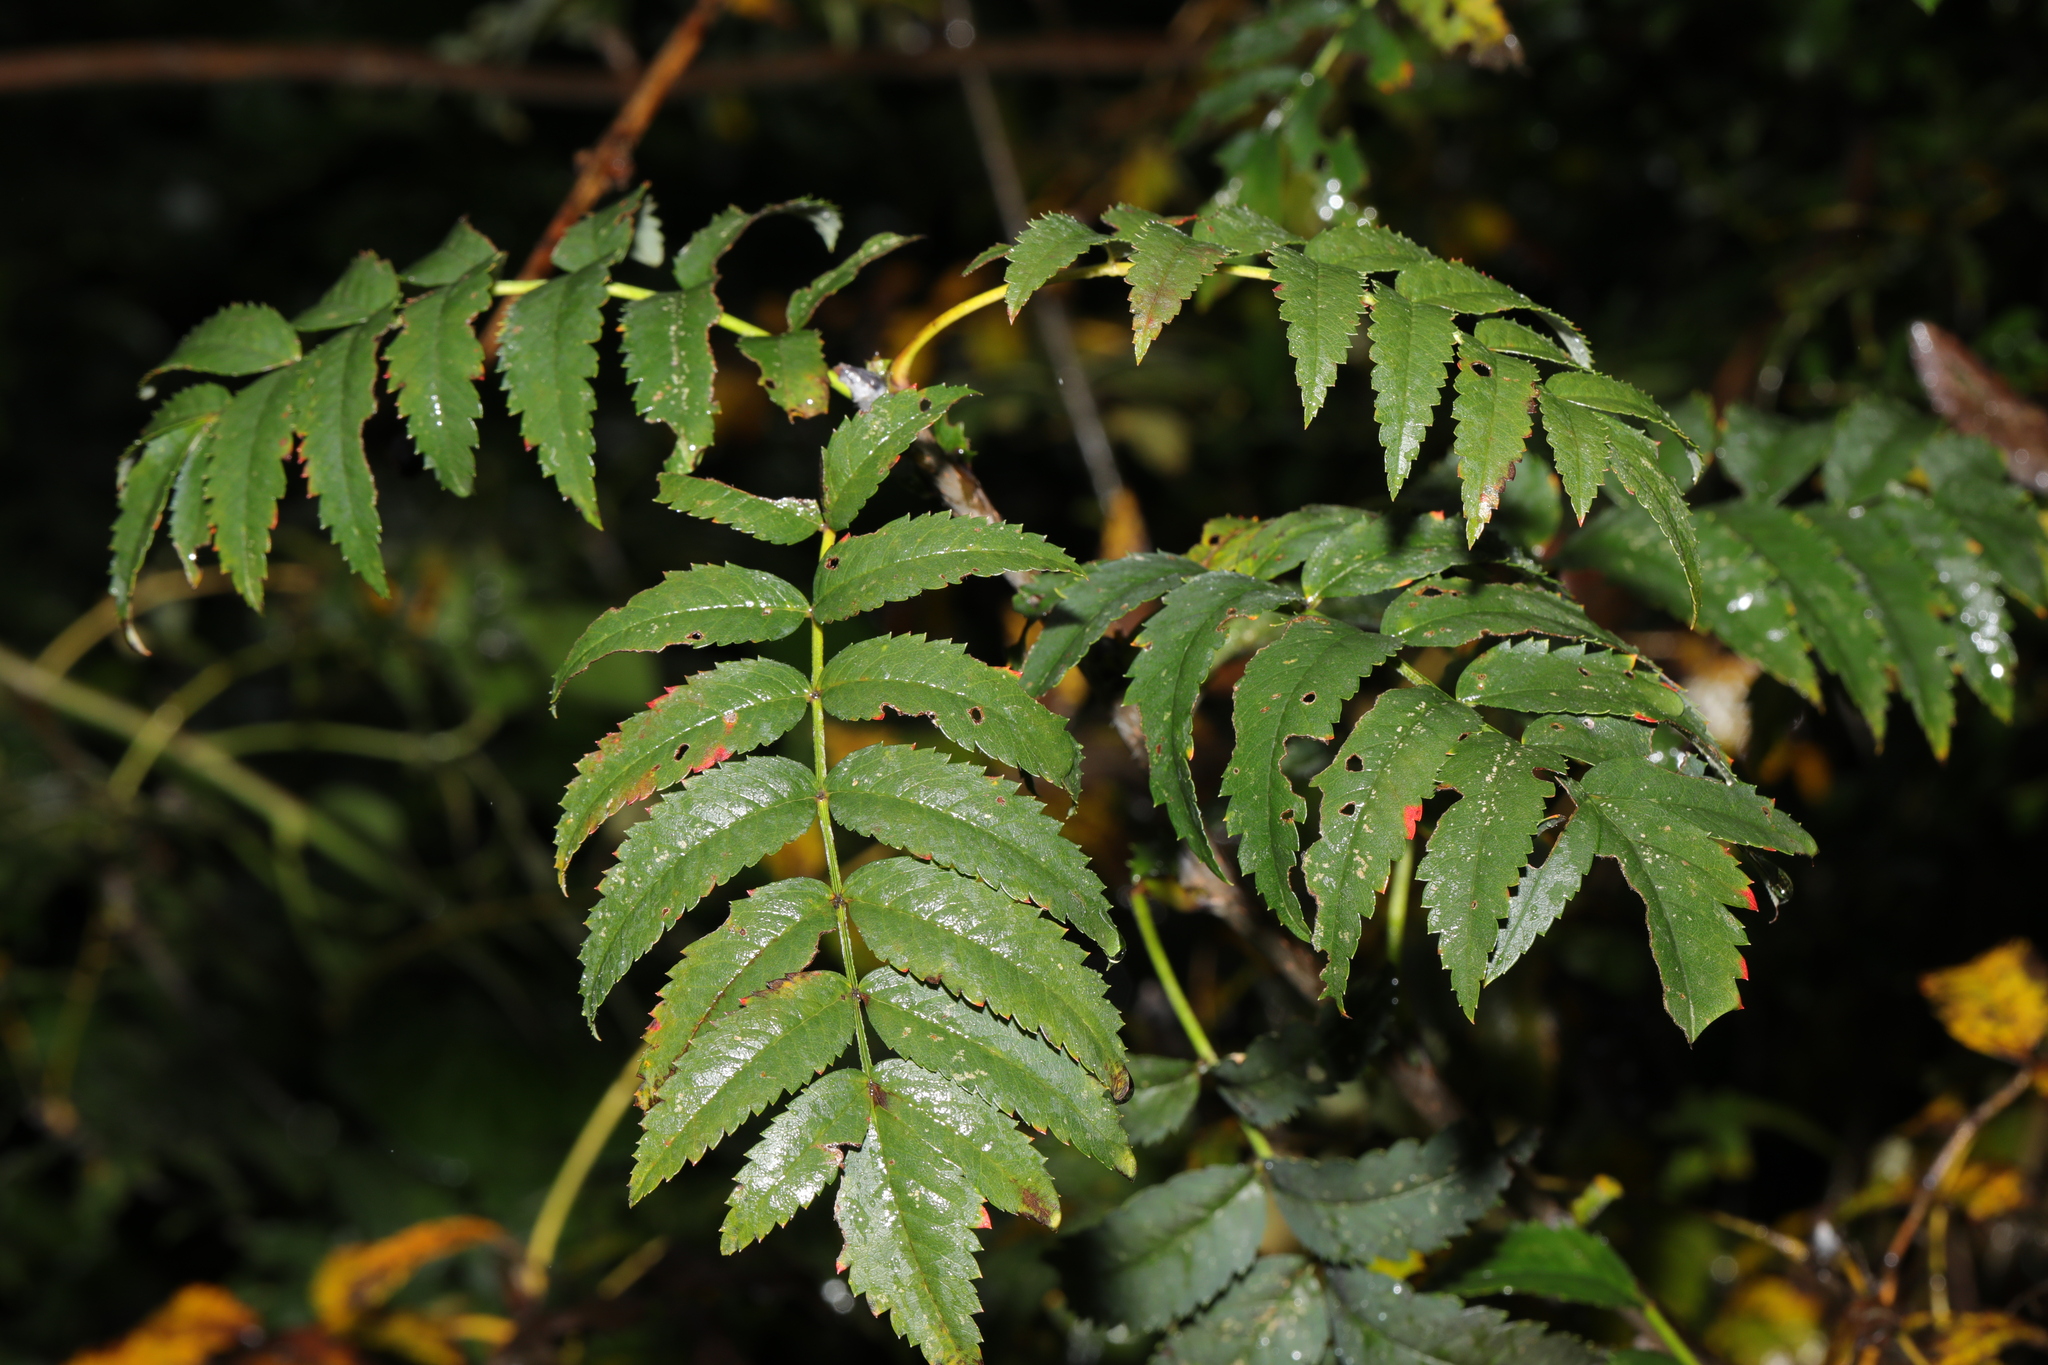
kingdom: Plantae
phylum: Tracheophyta
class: Magnoliopsida
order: Rosales
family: Rosaceae
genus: Sorbus
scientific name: Sorbus aucuparia
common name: Rowan
